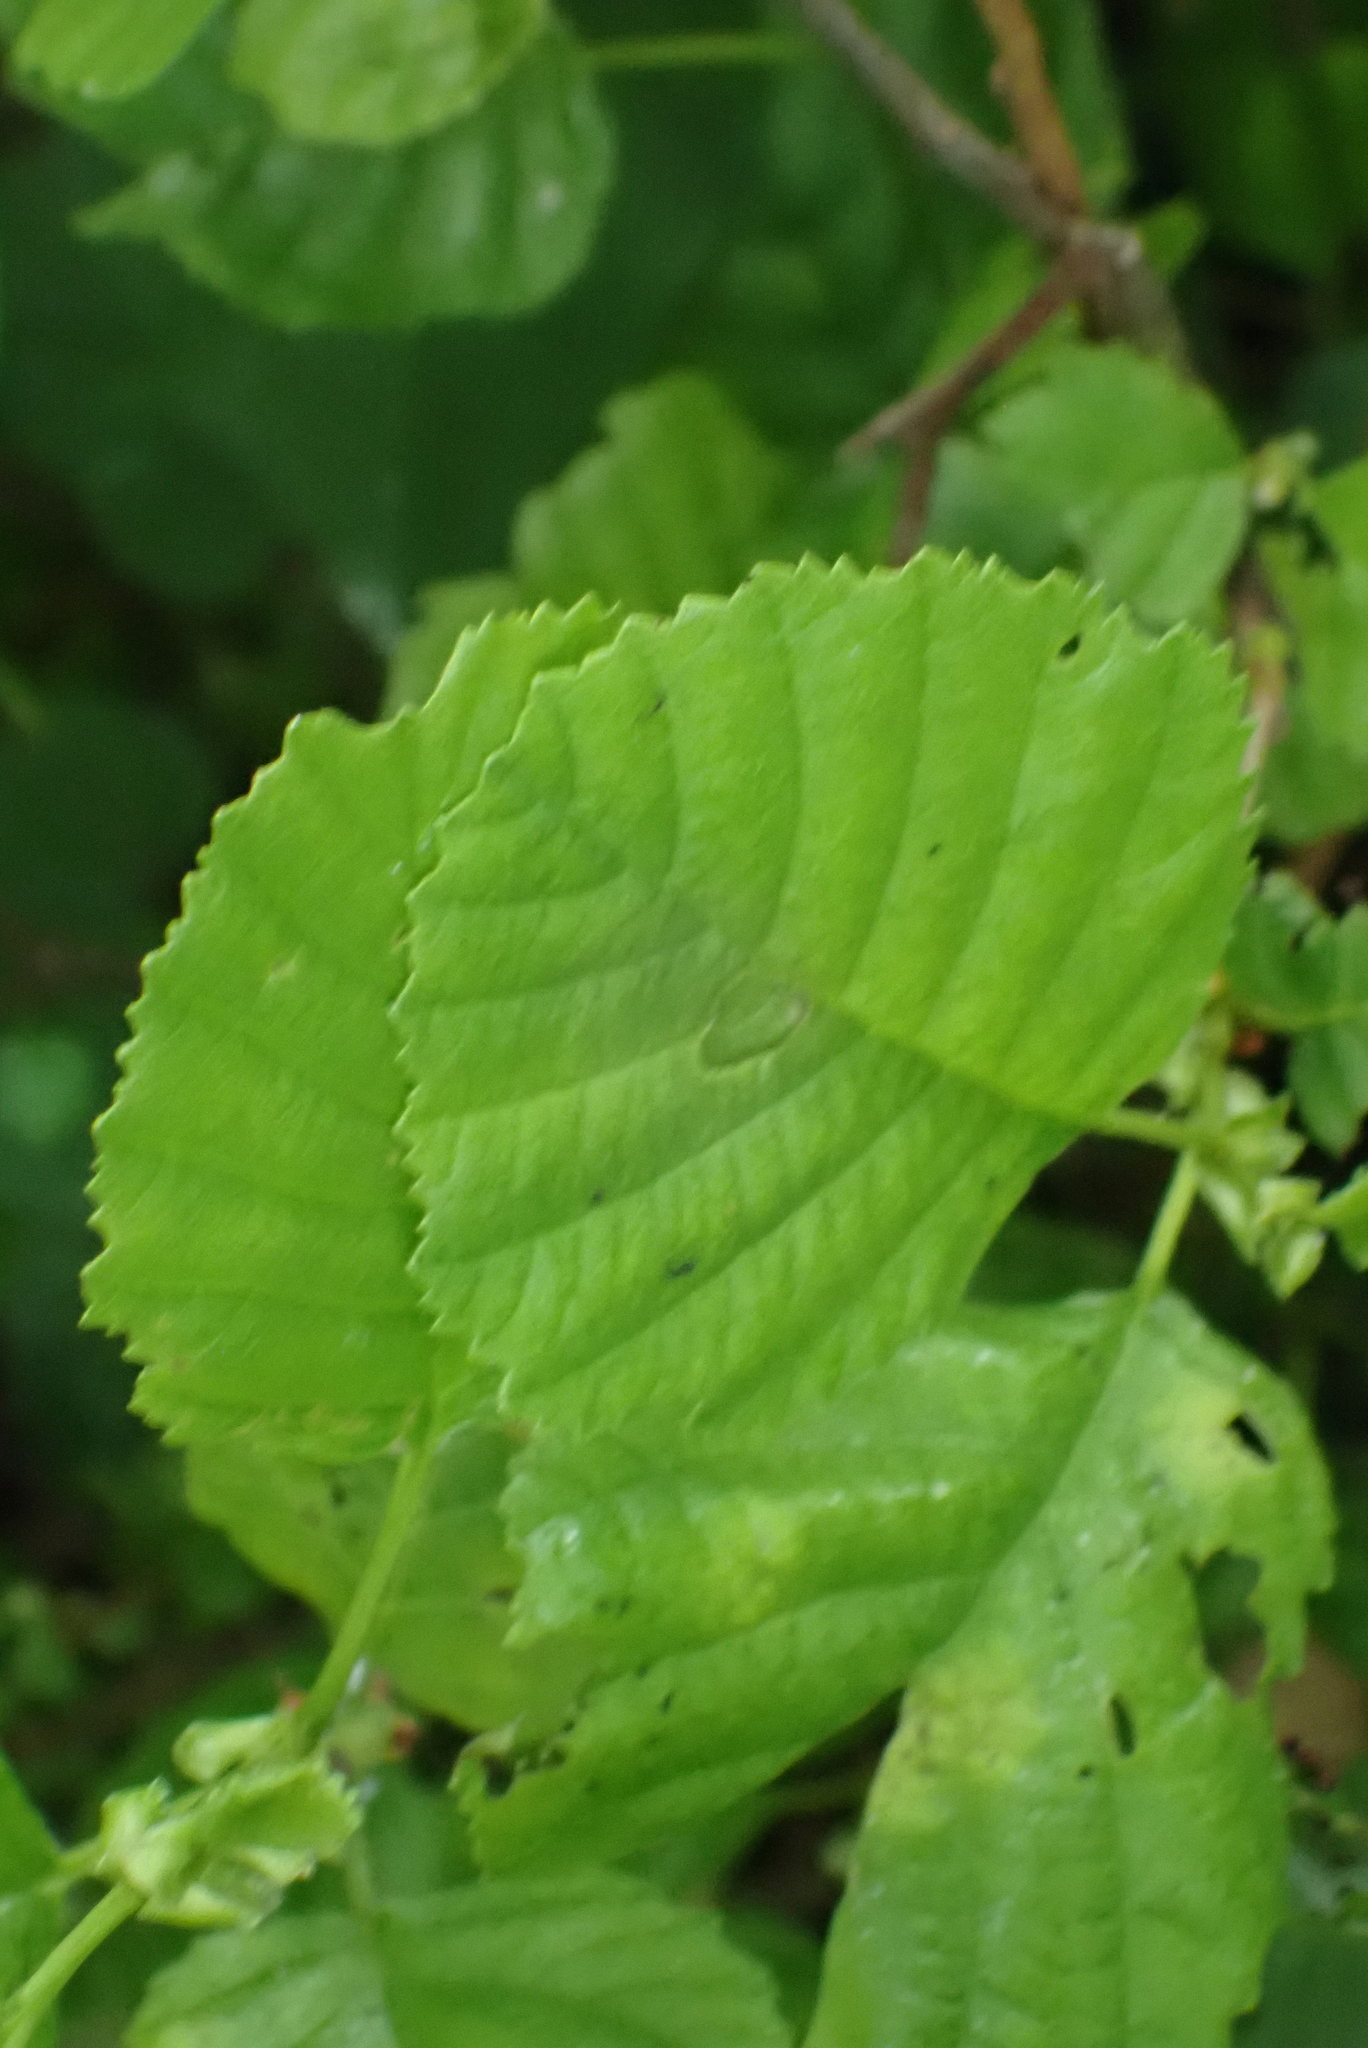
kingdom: Plantae
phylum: Tracheophyta
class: Magnoliopsida
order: Fagales
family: Betulaceae
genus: Alnus
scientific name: Alnus glutinosa
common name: Black alder
